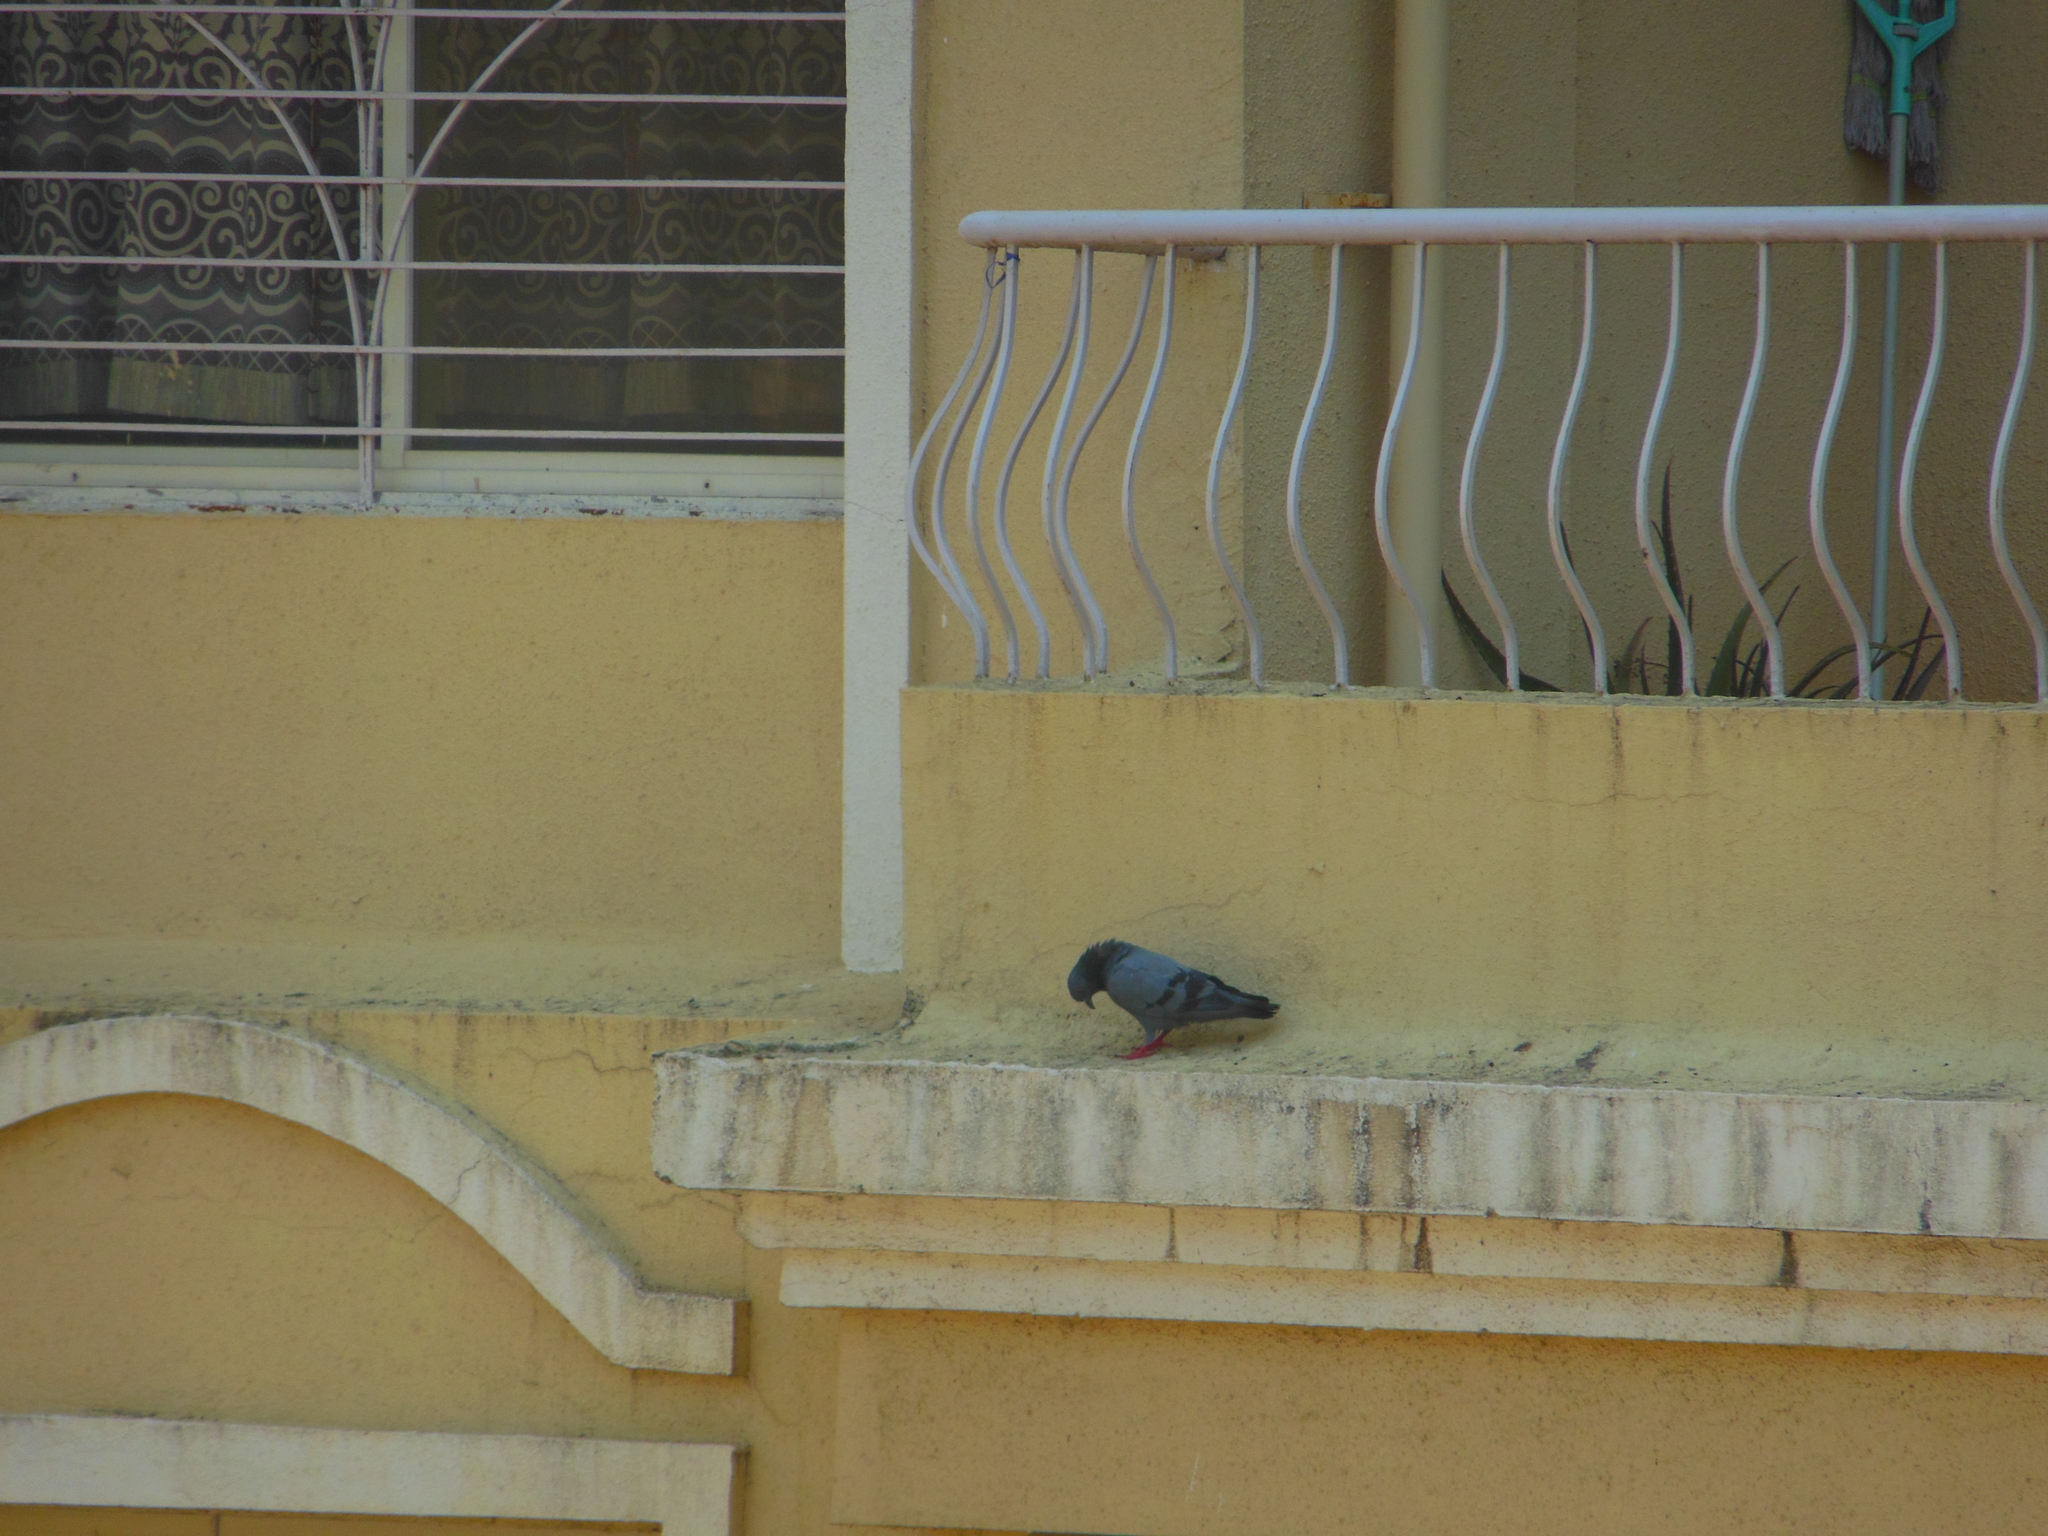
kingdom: Animalia
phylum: Chordata
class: Aves
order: Columbiformes
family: Columbidae
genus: Columba
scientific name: Columba livia
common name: Rock pigeon
